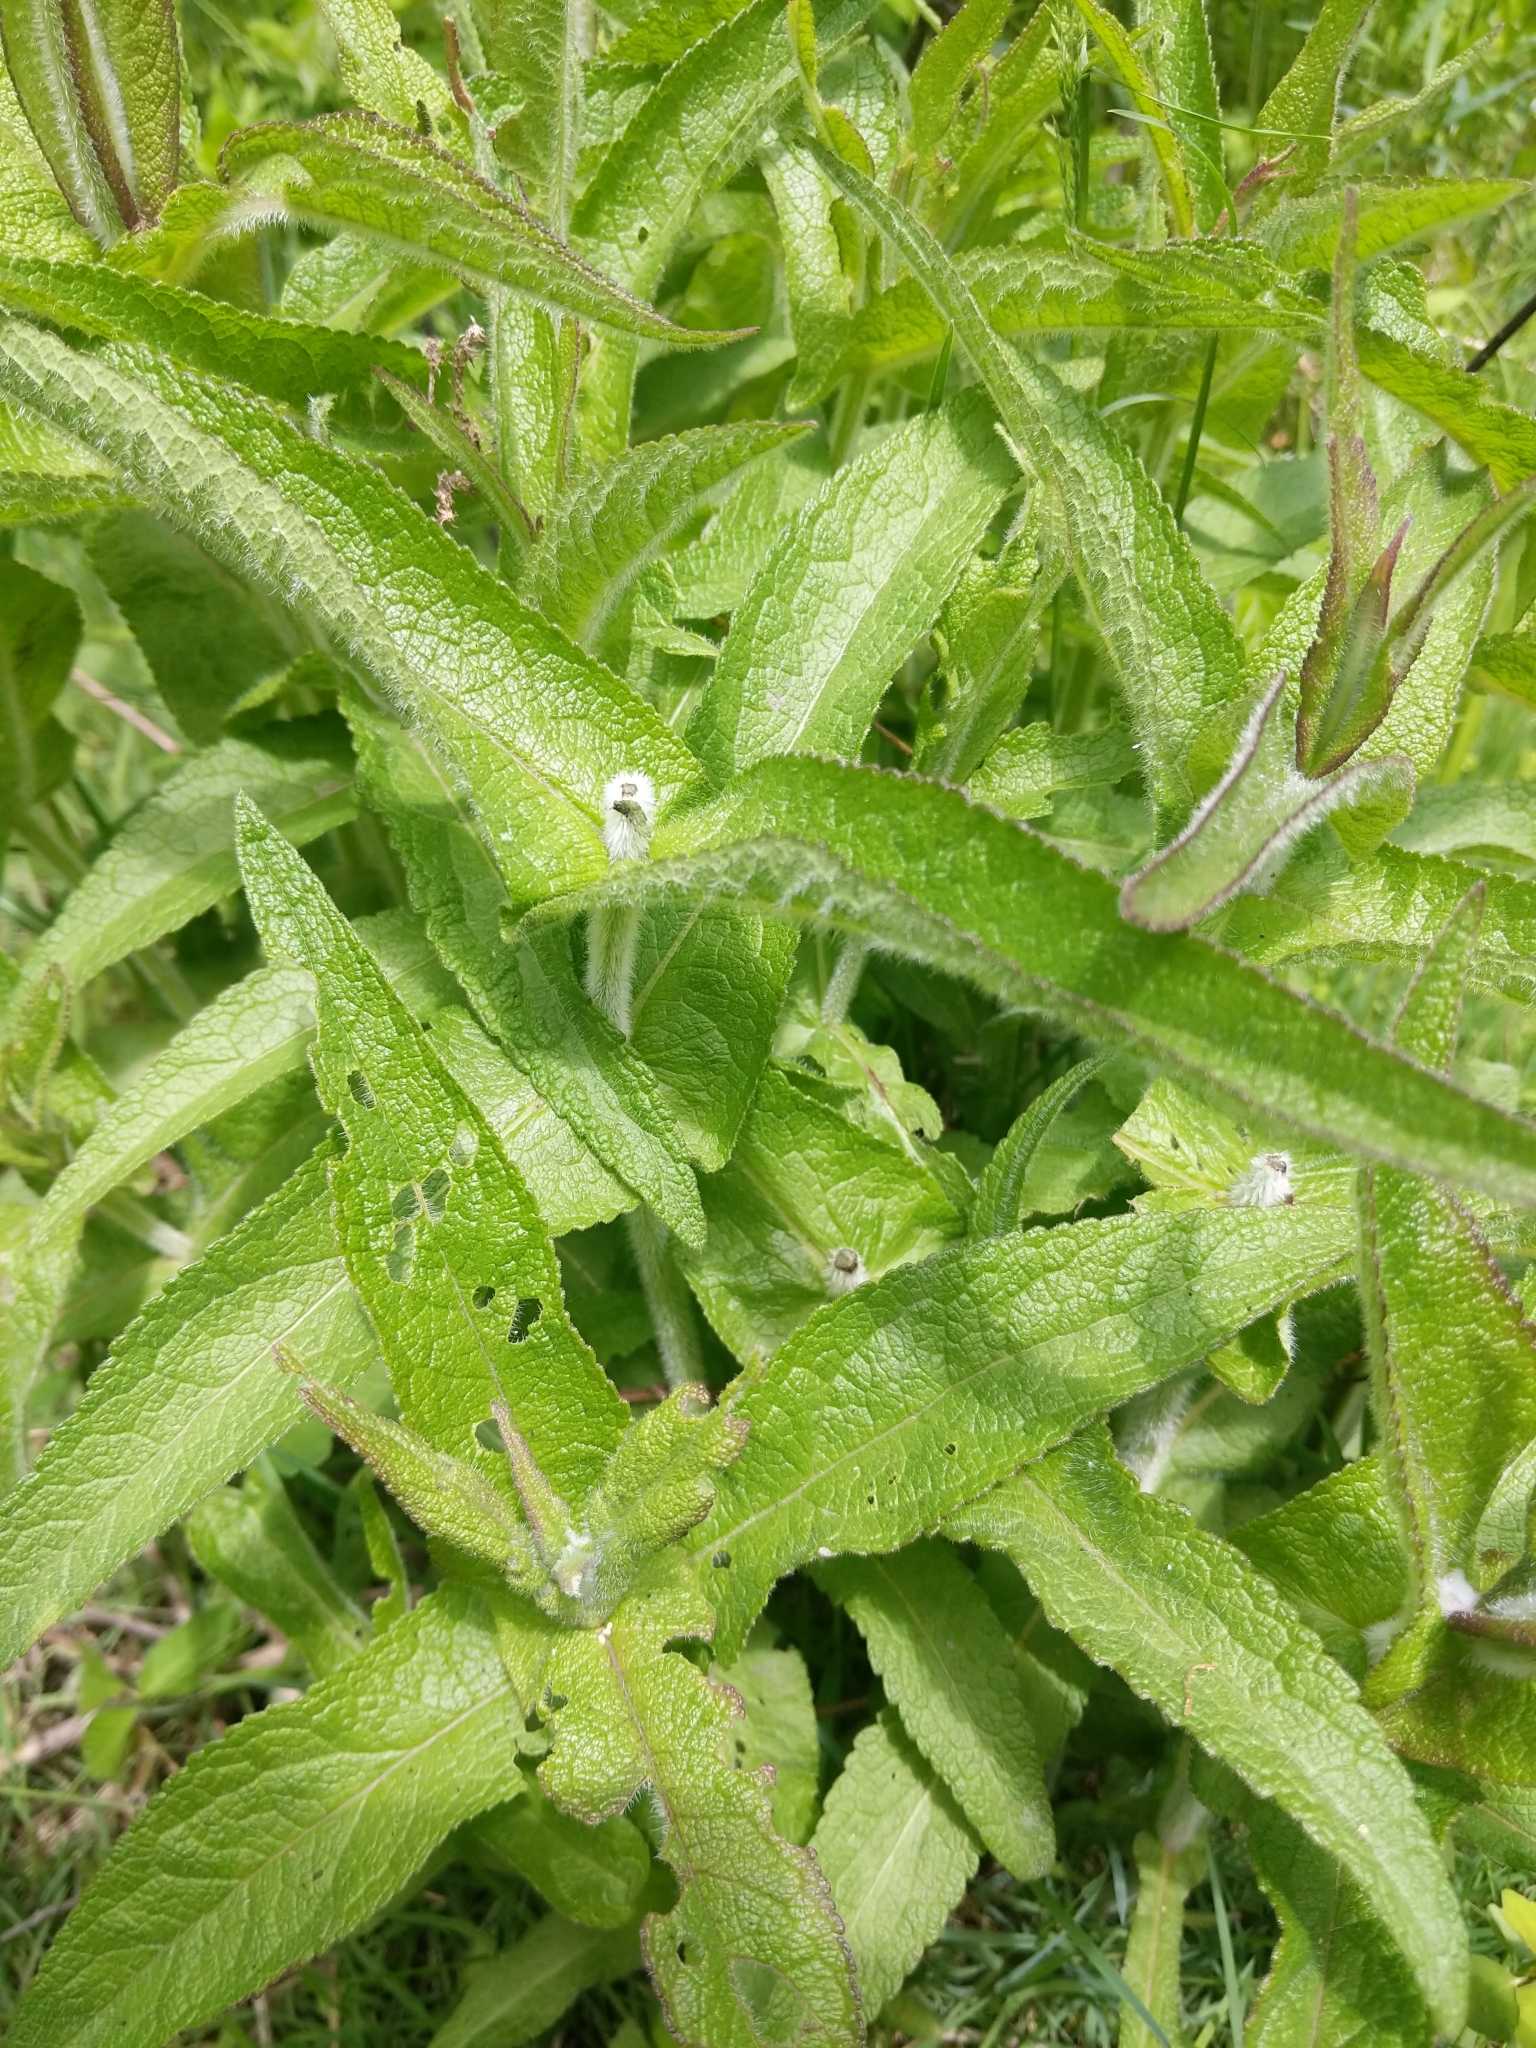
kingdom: Plantae
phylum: Tracheophyta
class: Magnoliopsida
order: Asterales
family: Asteraceae
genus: Eupatorium
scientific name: Eupatorium perfoliatum
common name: Boneset
